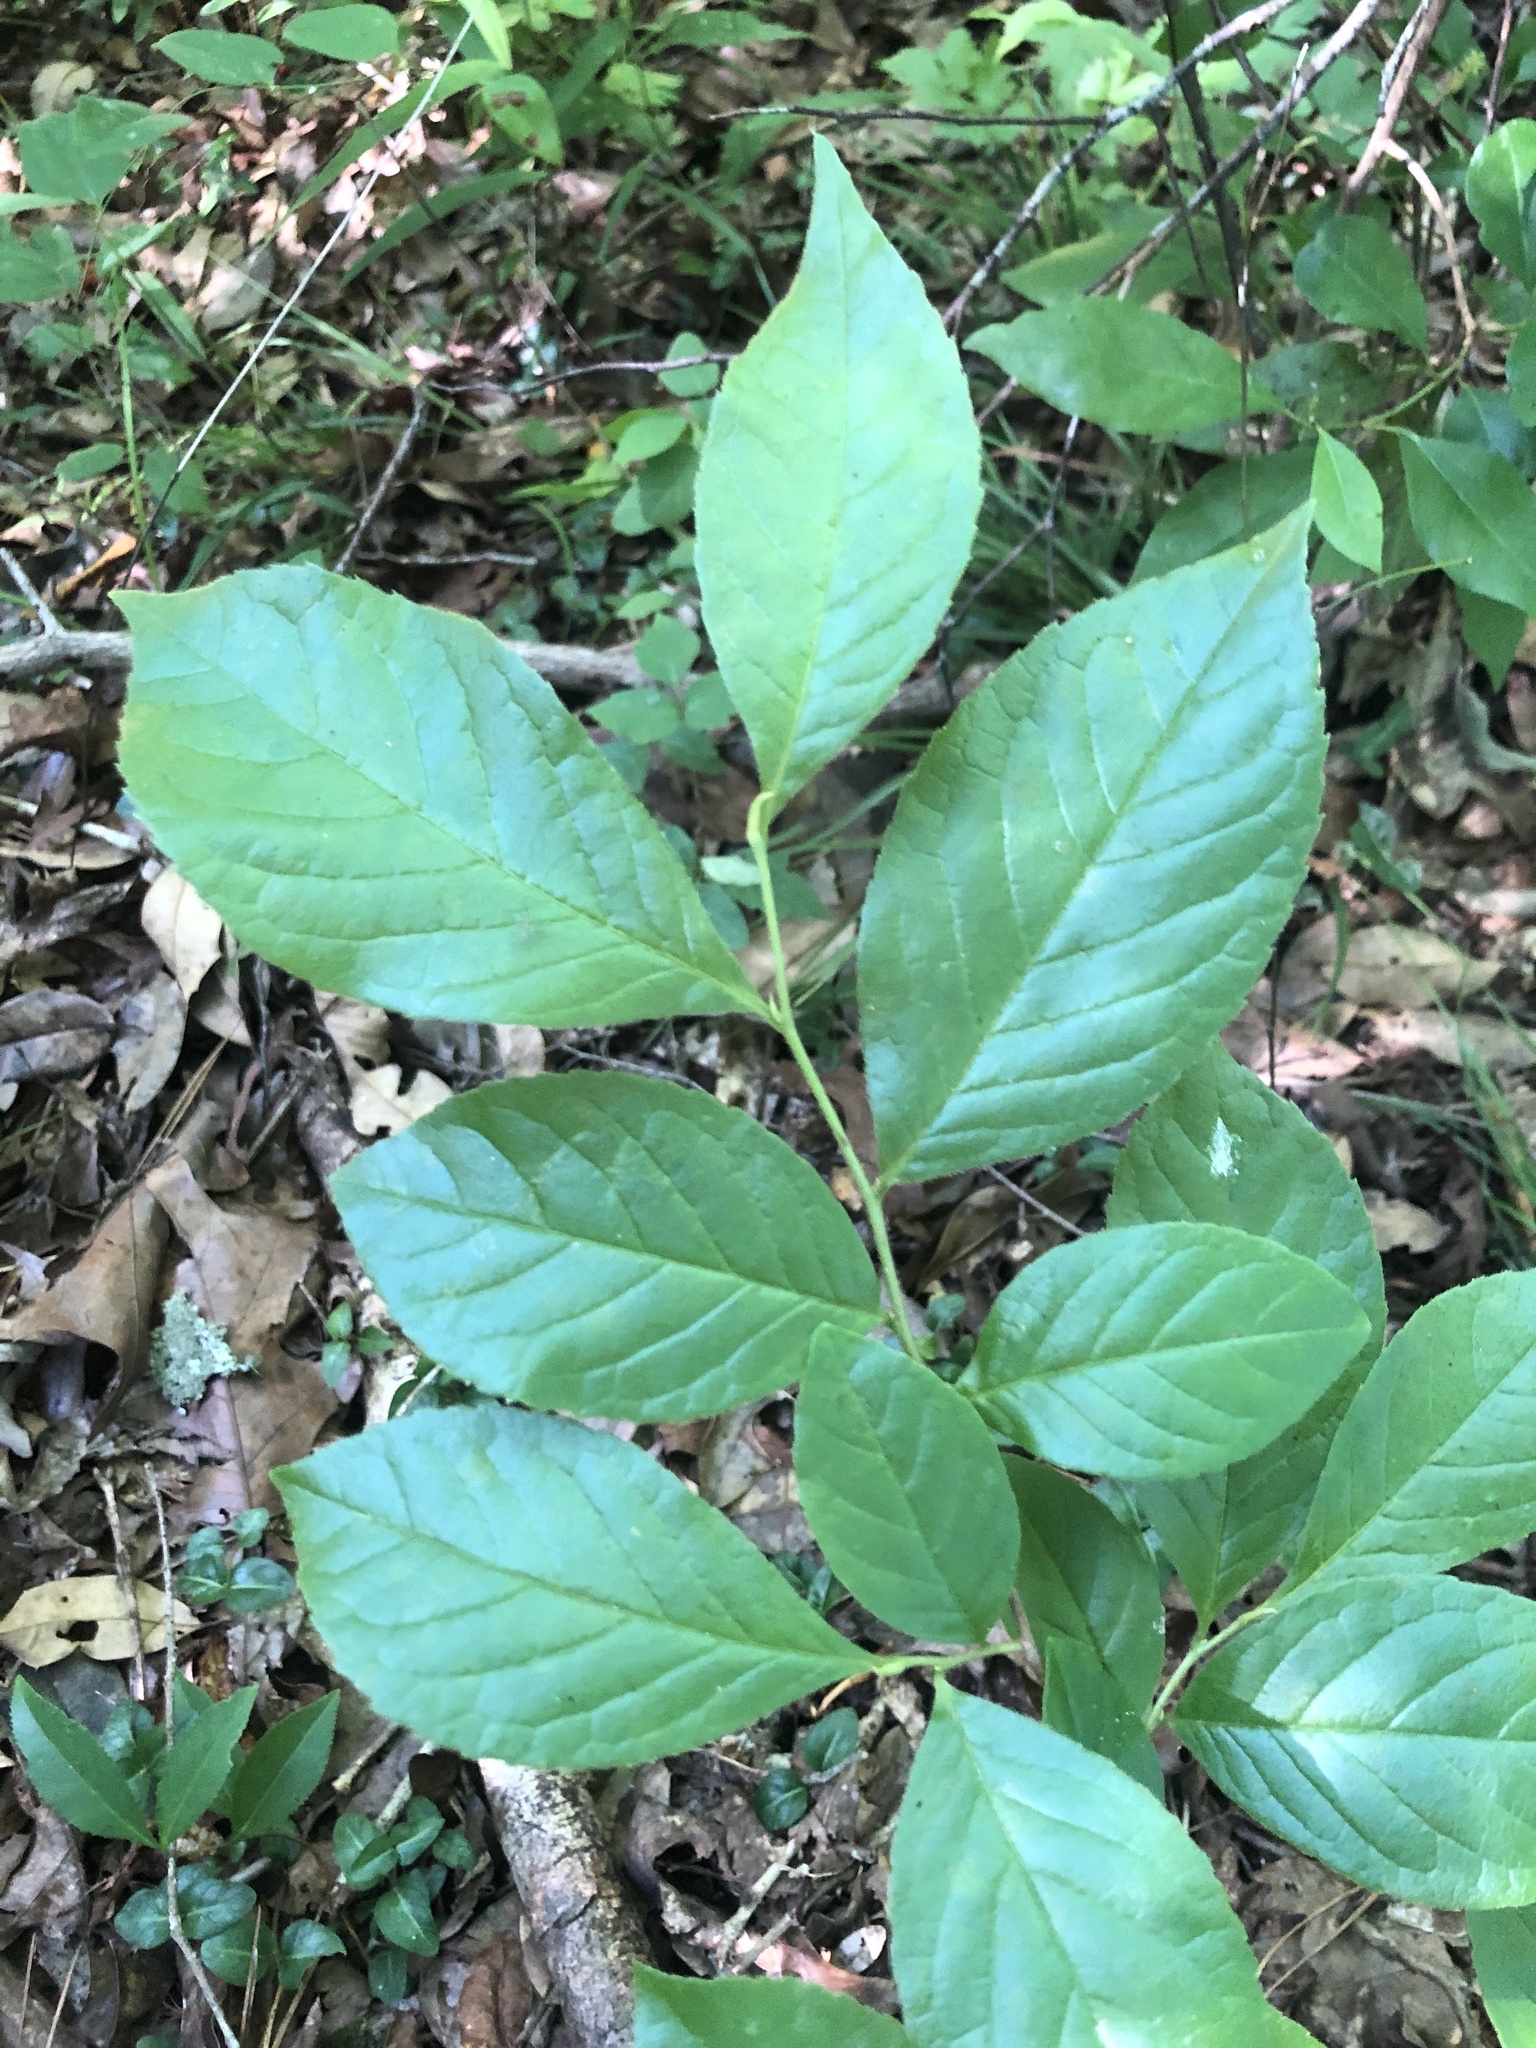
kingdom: Plantae
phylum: Tracheophyta
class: Magnoliopsida
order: Ericales
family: Theaceae
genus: Stewartia
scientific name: Stewartia malacodendron
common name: Virginia stewartia
